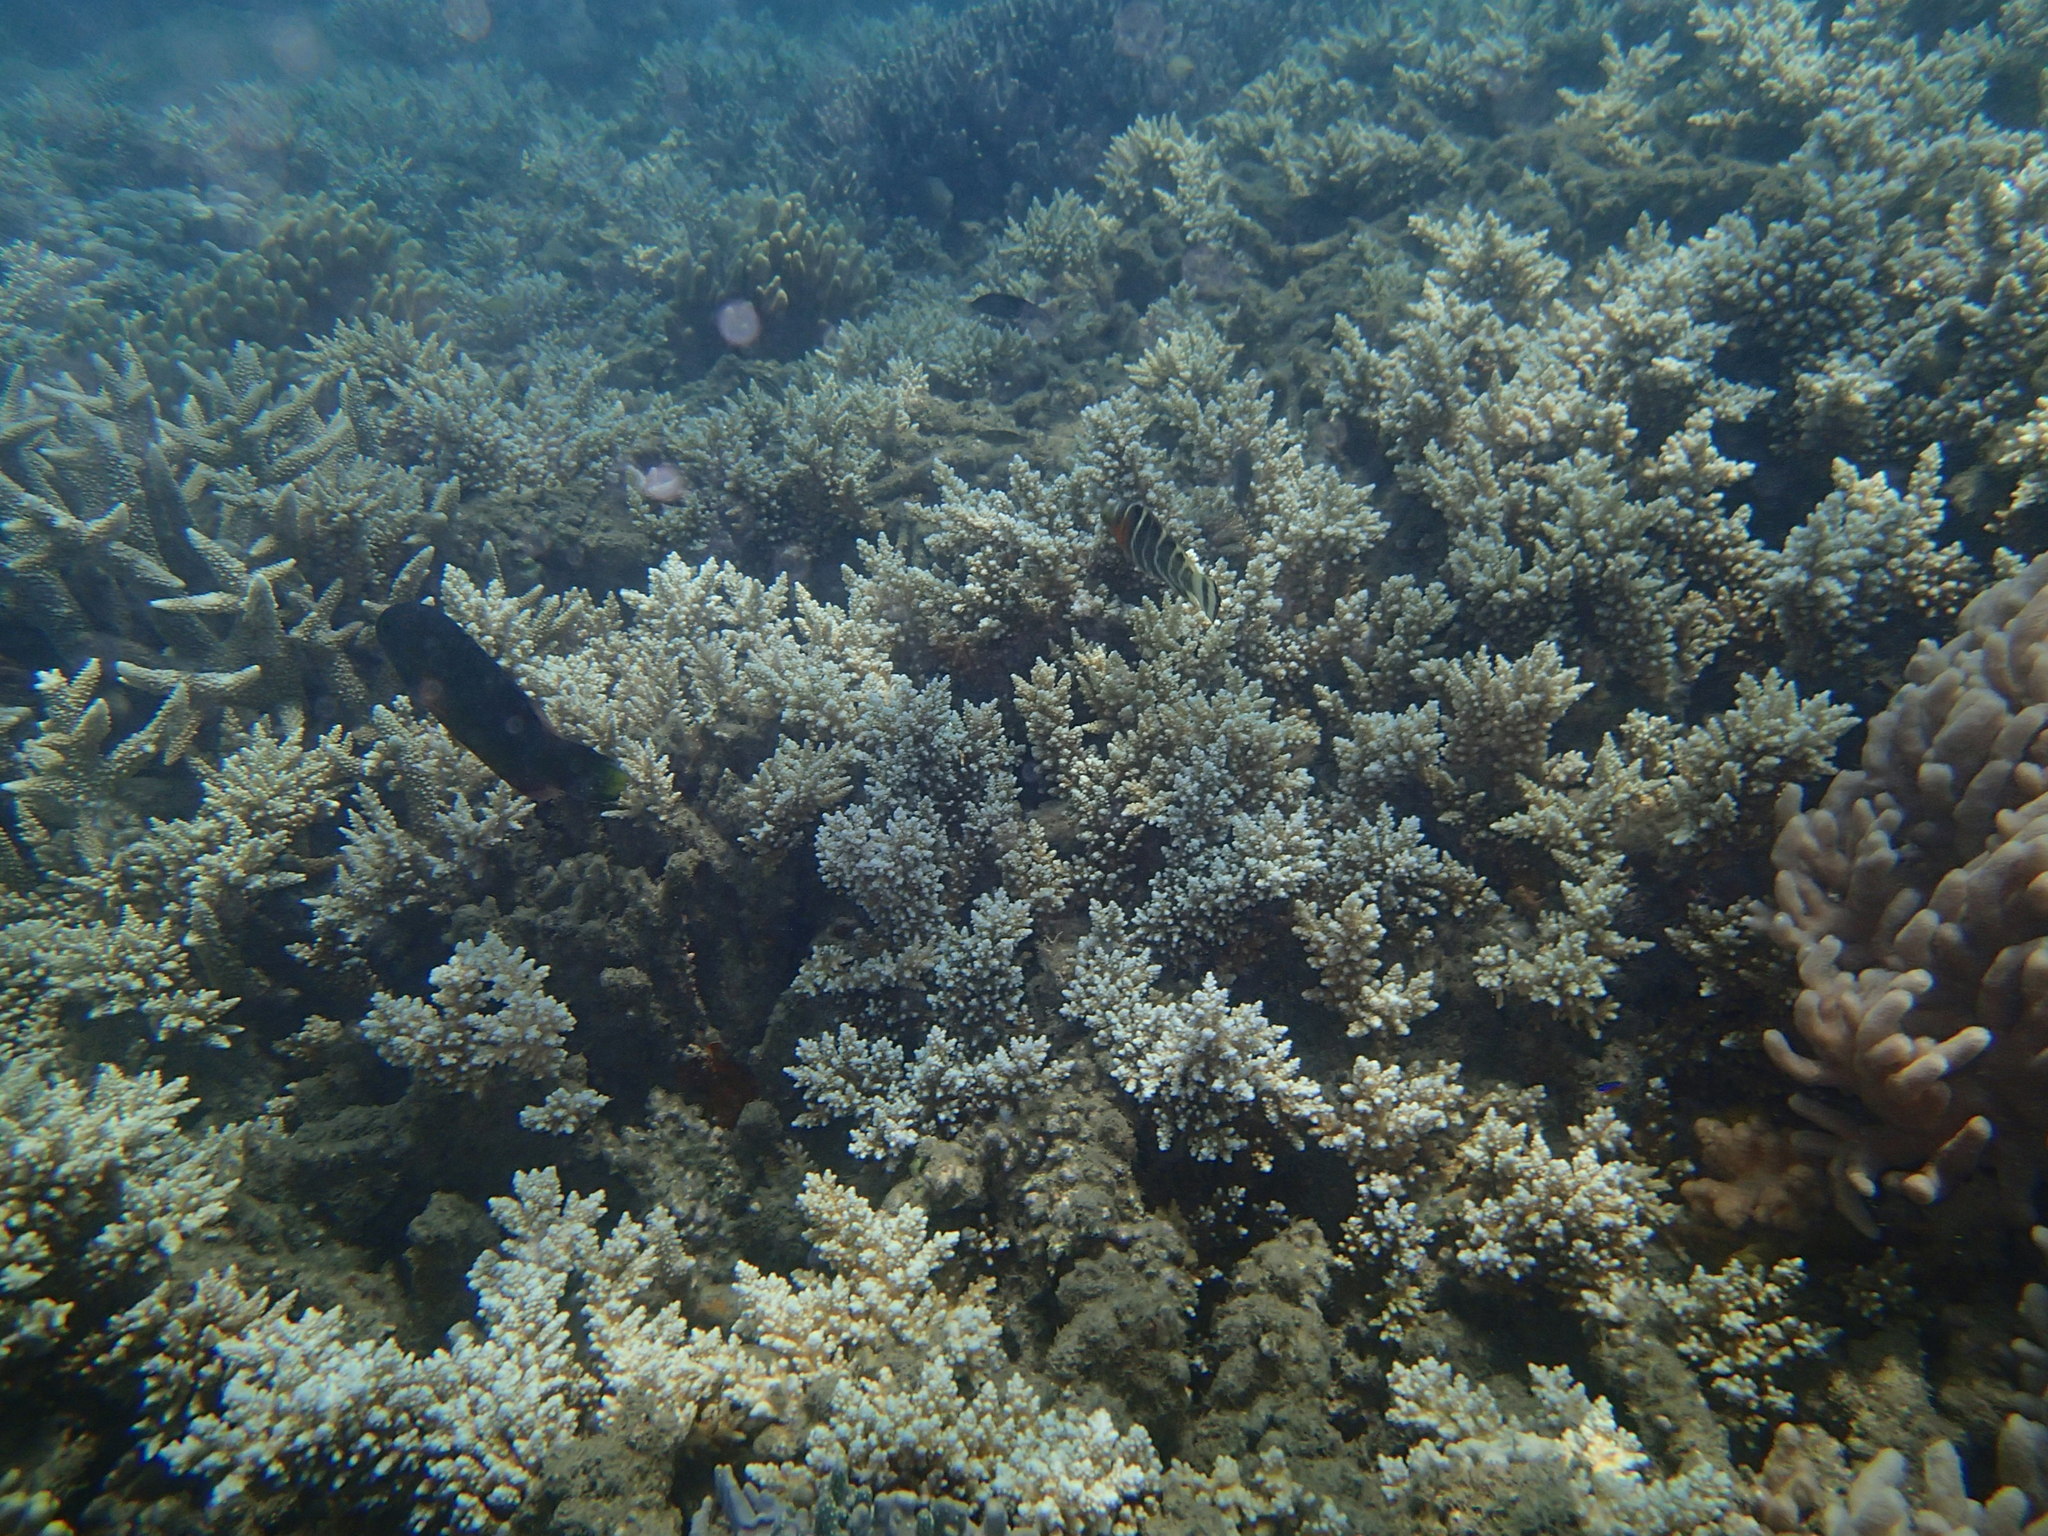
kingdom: Animalia
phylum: Chordata
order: Perciformes
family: Labridae
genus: Cheilinus
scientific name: Cheilinus fasciatus
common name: Red-breasted wrasse
